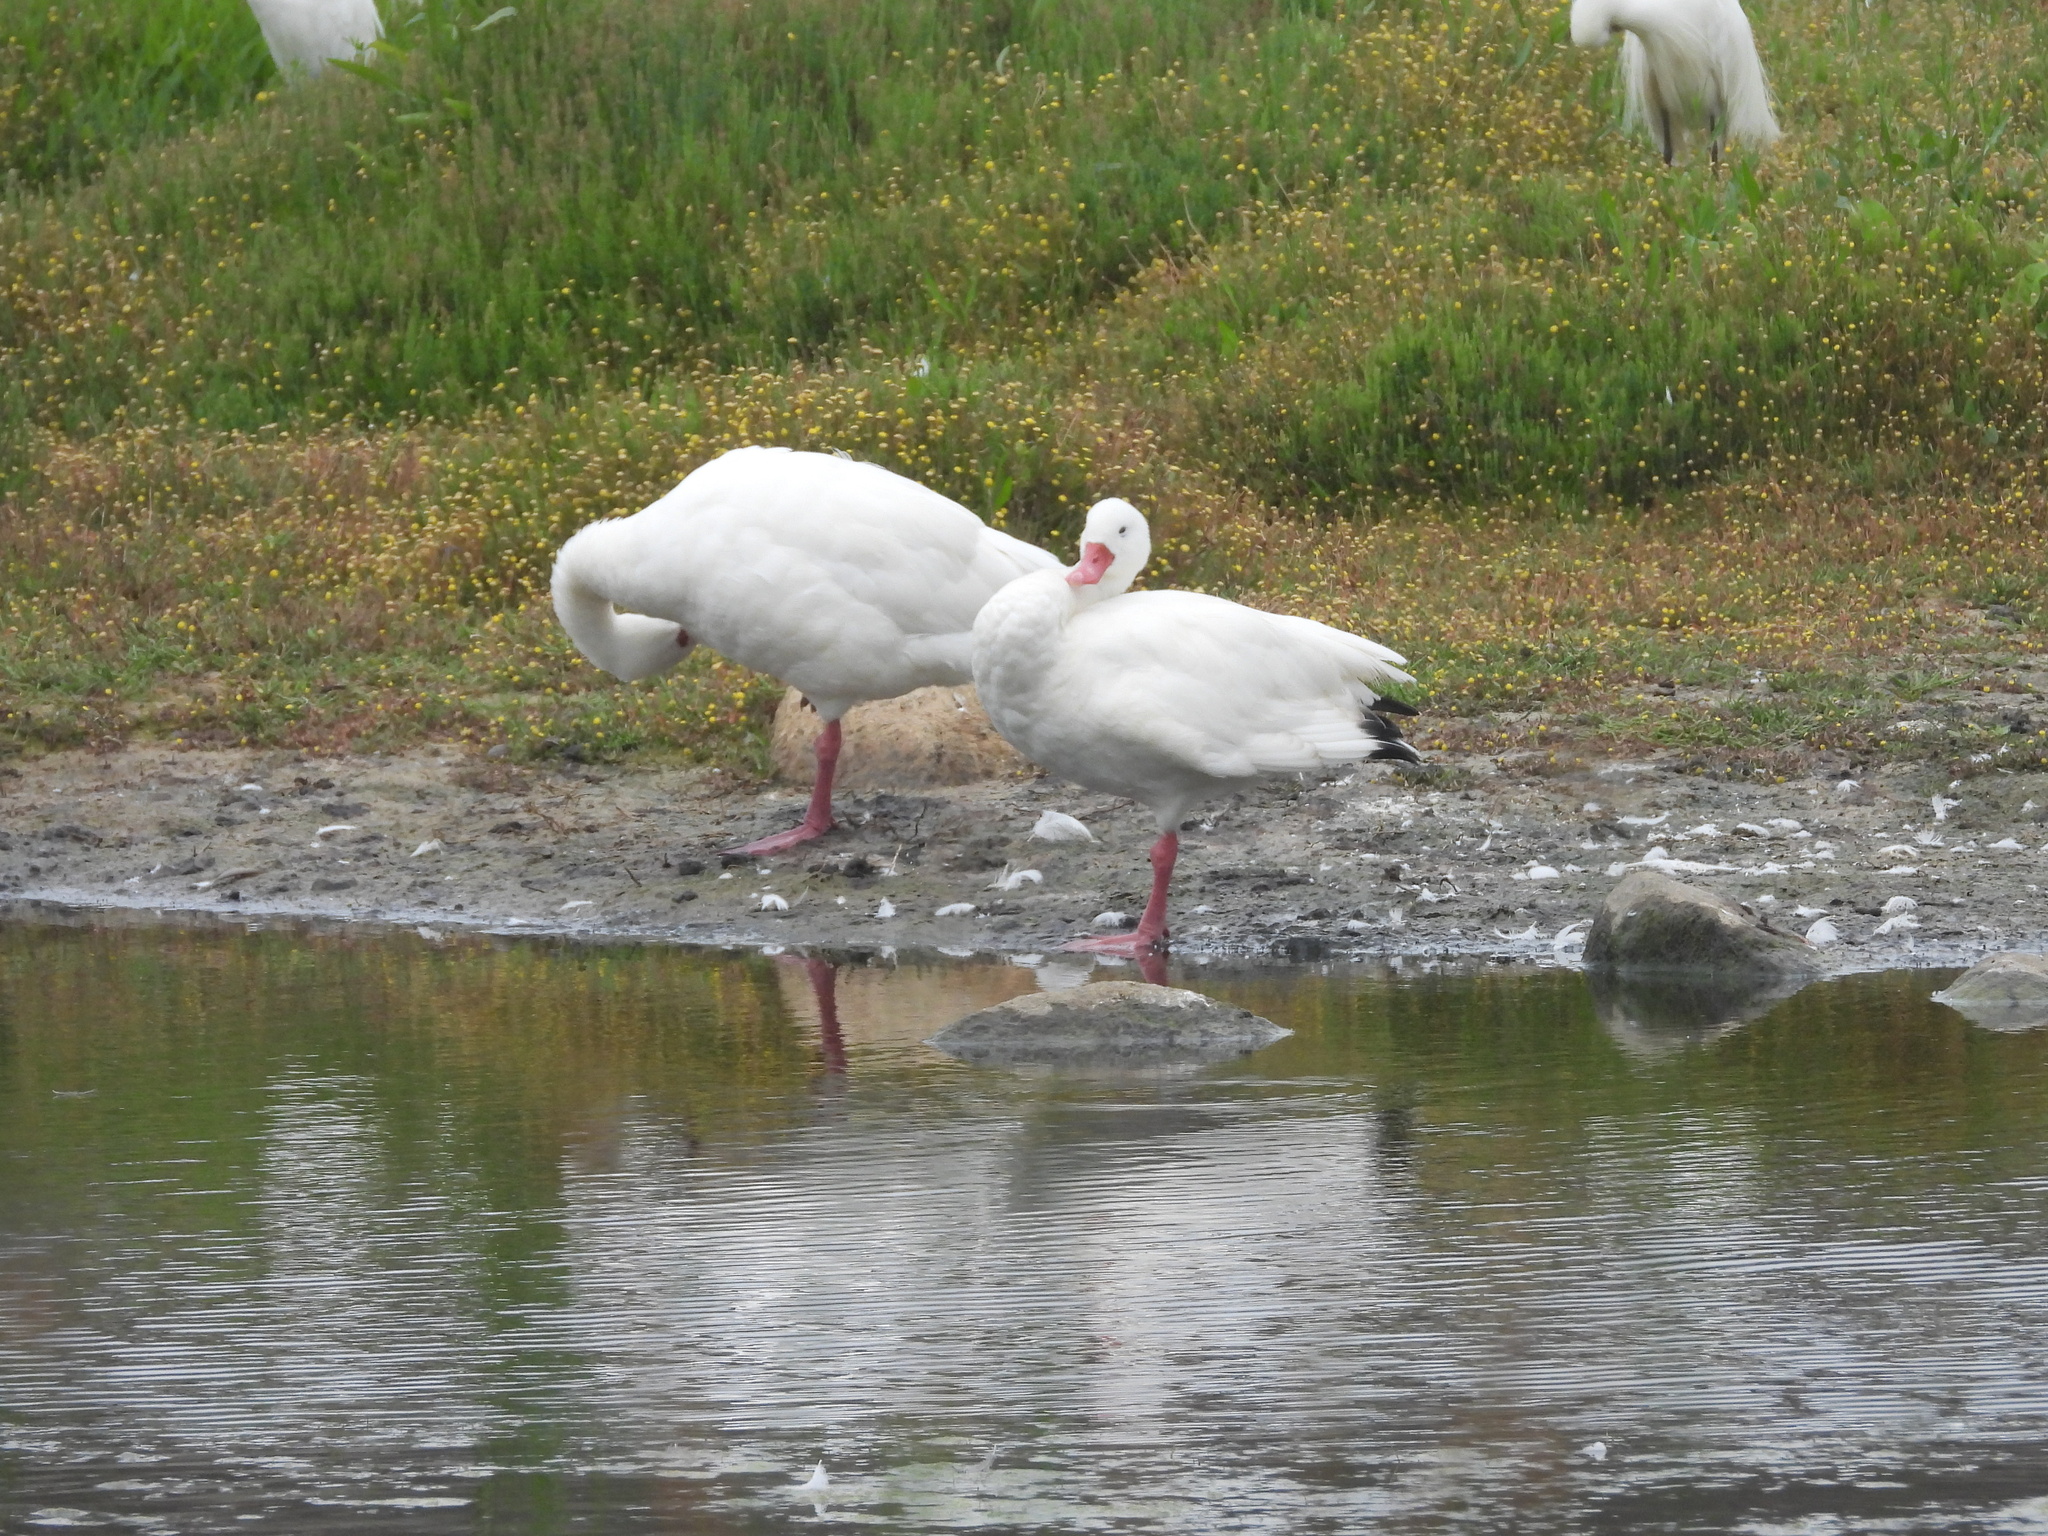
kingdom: Animalia
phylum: Chordata
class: Aves
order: Anseriformes
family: Anatidae
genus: Coscoroba
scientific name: Coscoroba coscoroba
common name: Coscoroba swan
